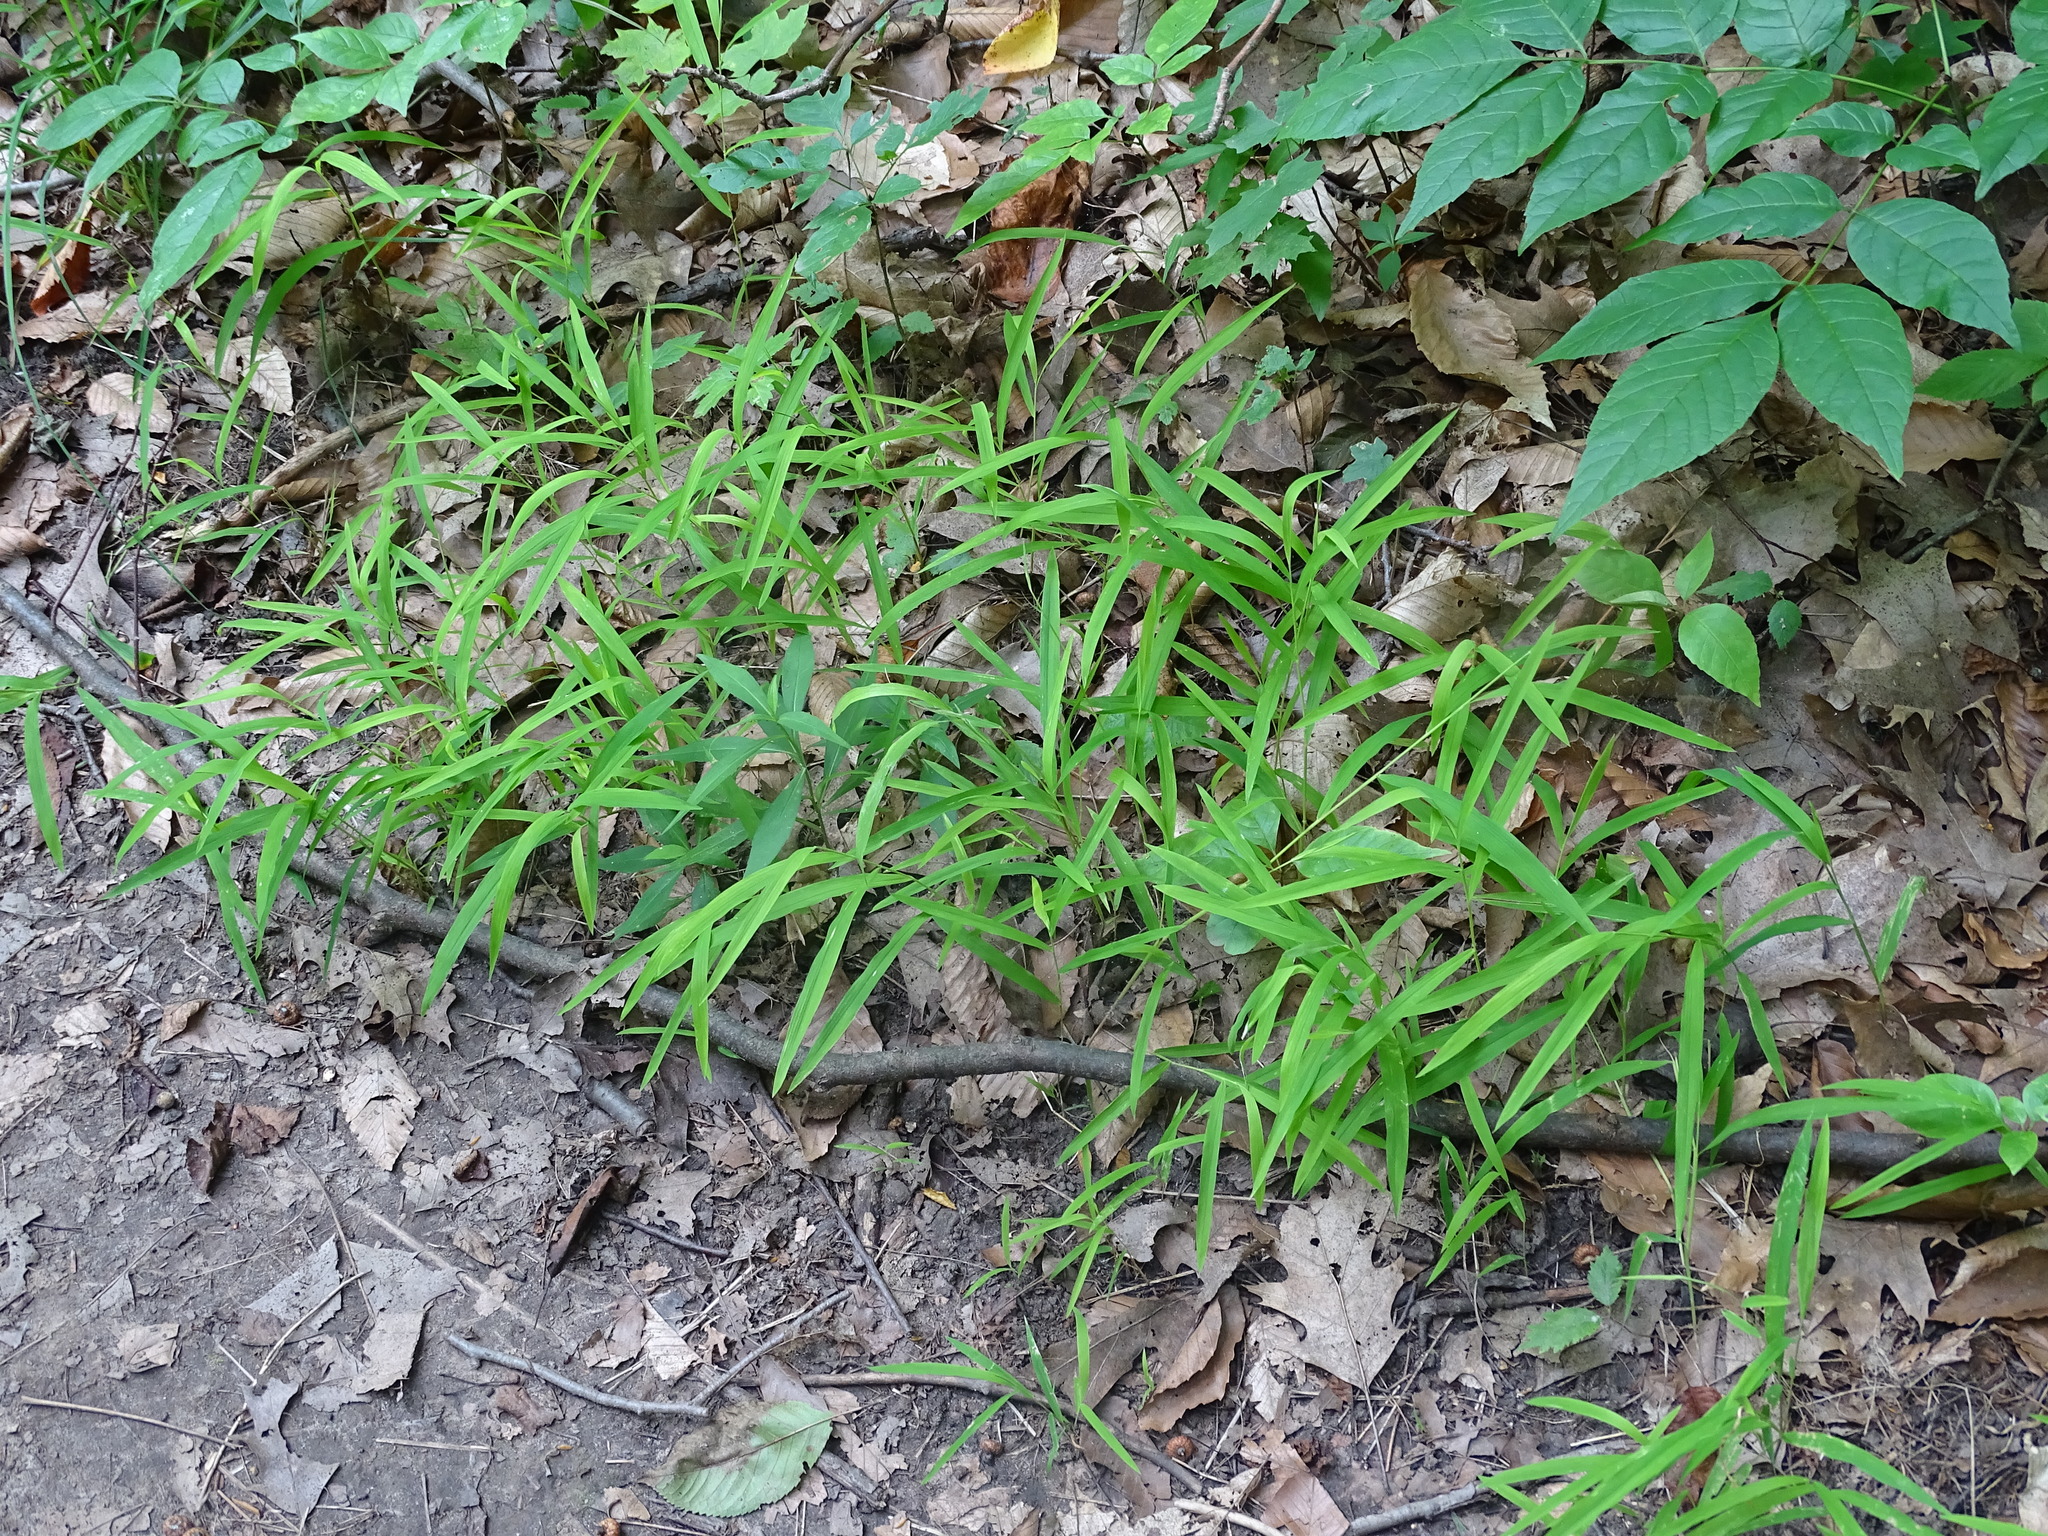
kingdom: Plantae
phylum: Tracheophyta
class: Liliopsida
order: Poales
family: Poaceae
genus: Leersia
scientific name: Leersia virginica
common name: White cutgrass
